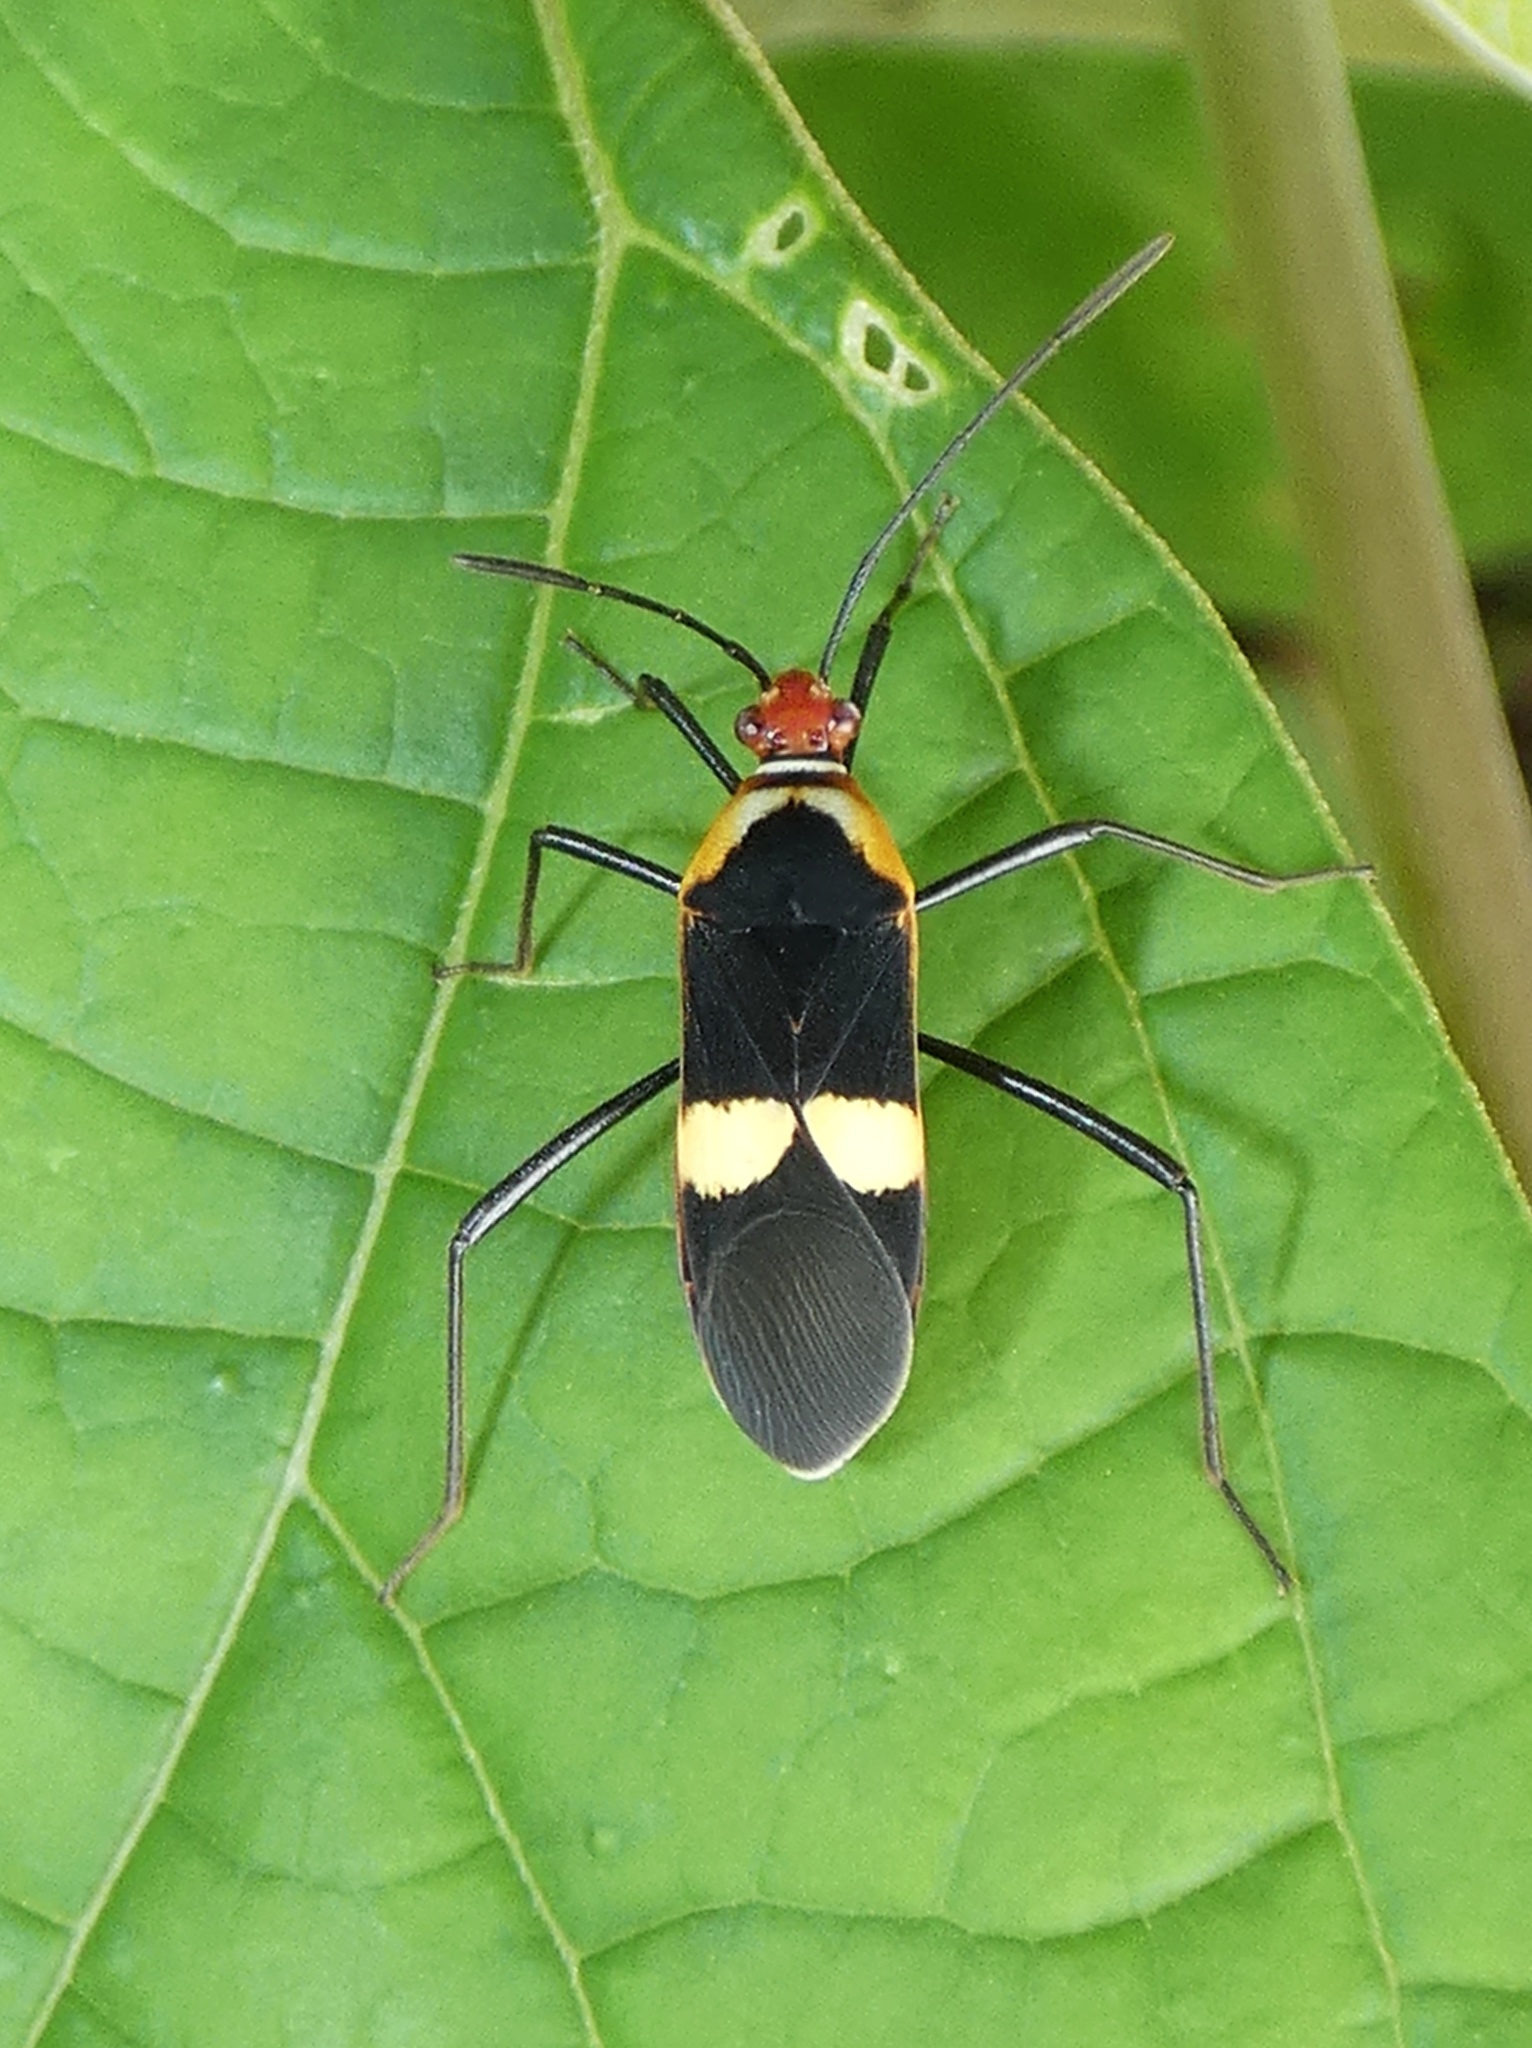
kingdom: Animalia
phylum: Arthropoda
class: Insecta
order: Hemiptera
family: Coreidae
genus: Hypselonotus
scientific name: Hypselonotus interruptus
